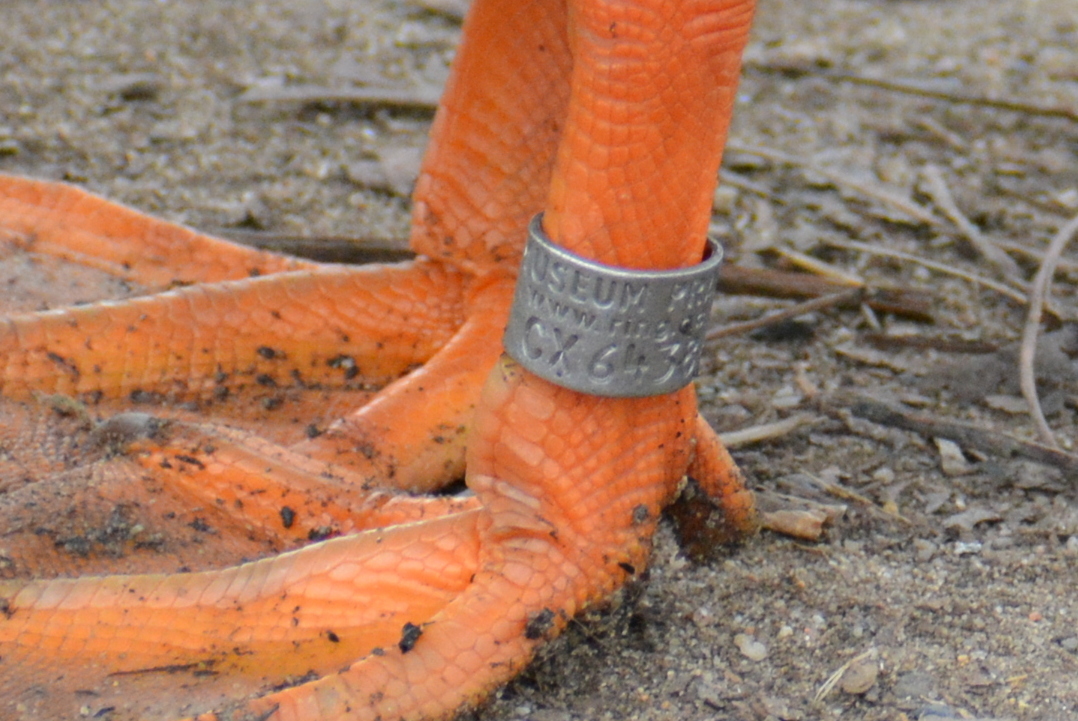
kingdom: Animalia
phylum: Chordata
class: Aves
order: Anseriformes
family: Anatidae
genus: Anas
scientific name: Anas platyrhynchos
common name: Mallard
